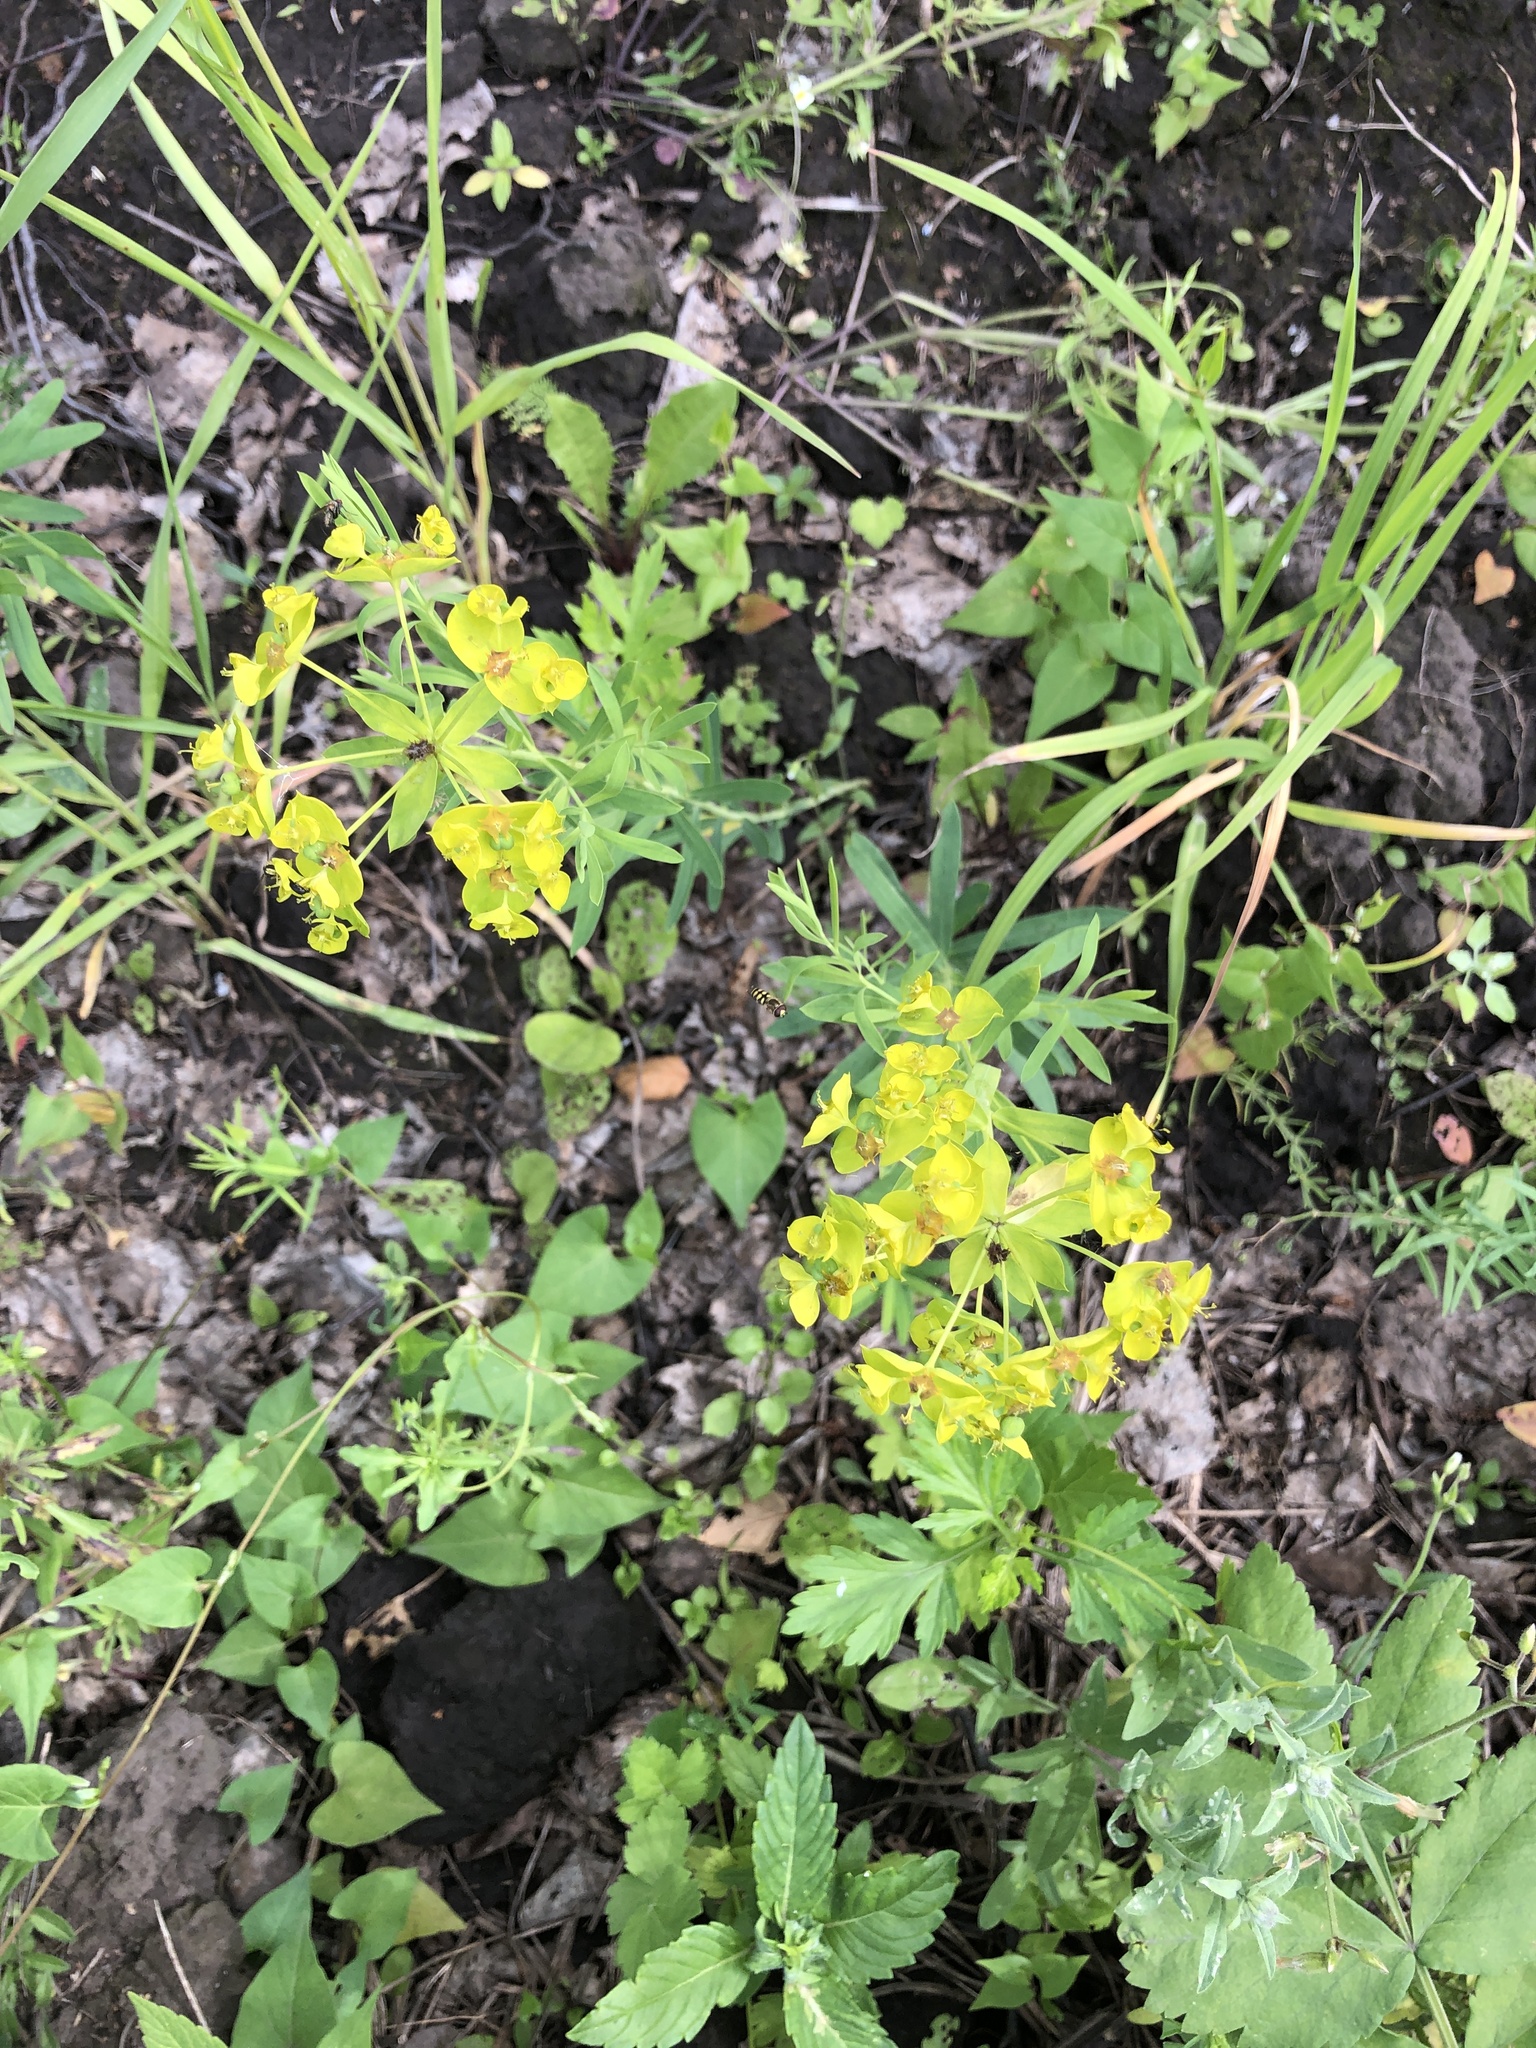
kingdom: Plantae
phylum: Tracheophyta
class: Magnoliopsida
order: Malpighiales
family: Euphorbiaceae
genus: Euphorbia
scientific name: Euphorbia virgata
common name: Leafy spurge
